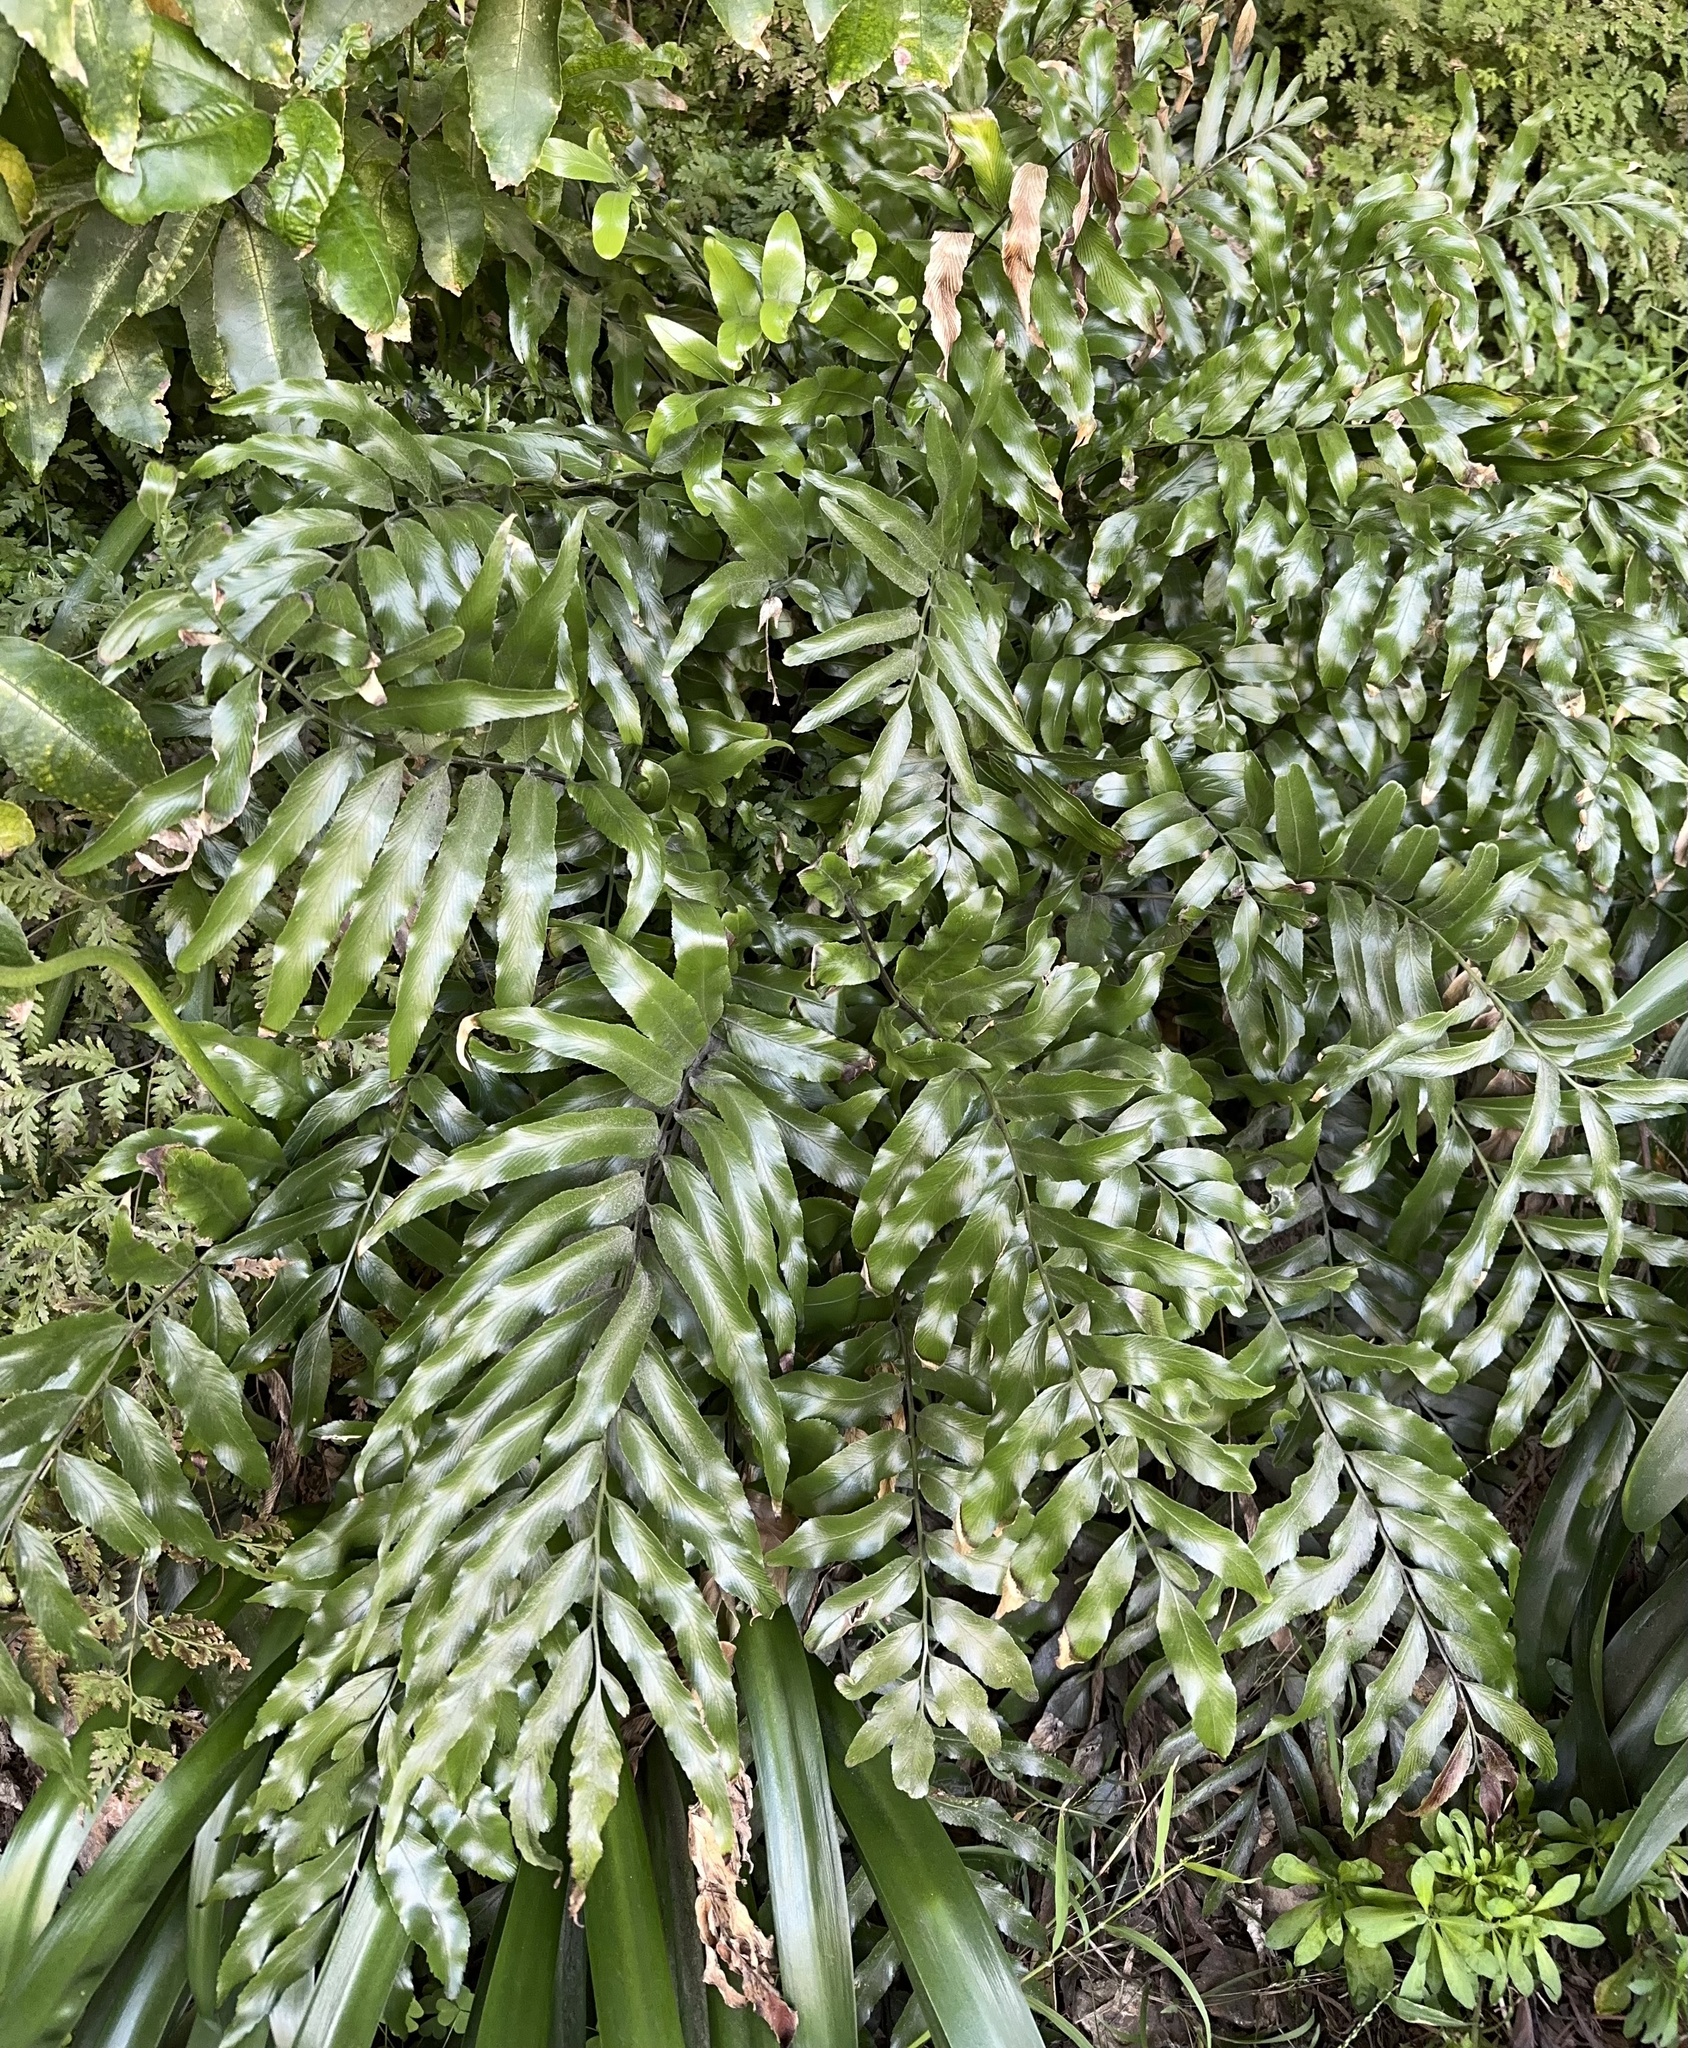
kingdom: Plantae
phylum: Tracheophyta
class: Polypodiopsida
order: Polypodiales
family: Aspleniaceae
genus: Asplenium
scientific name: Asplenium oblongifolium
